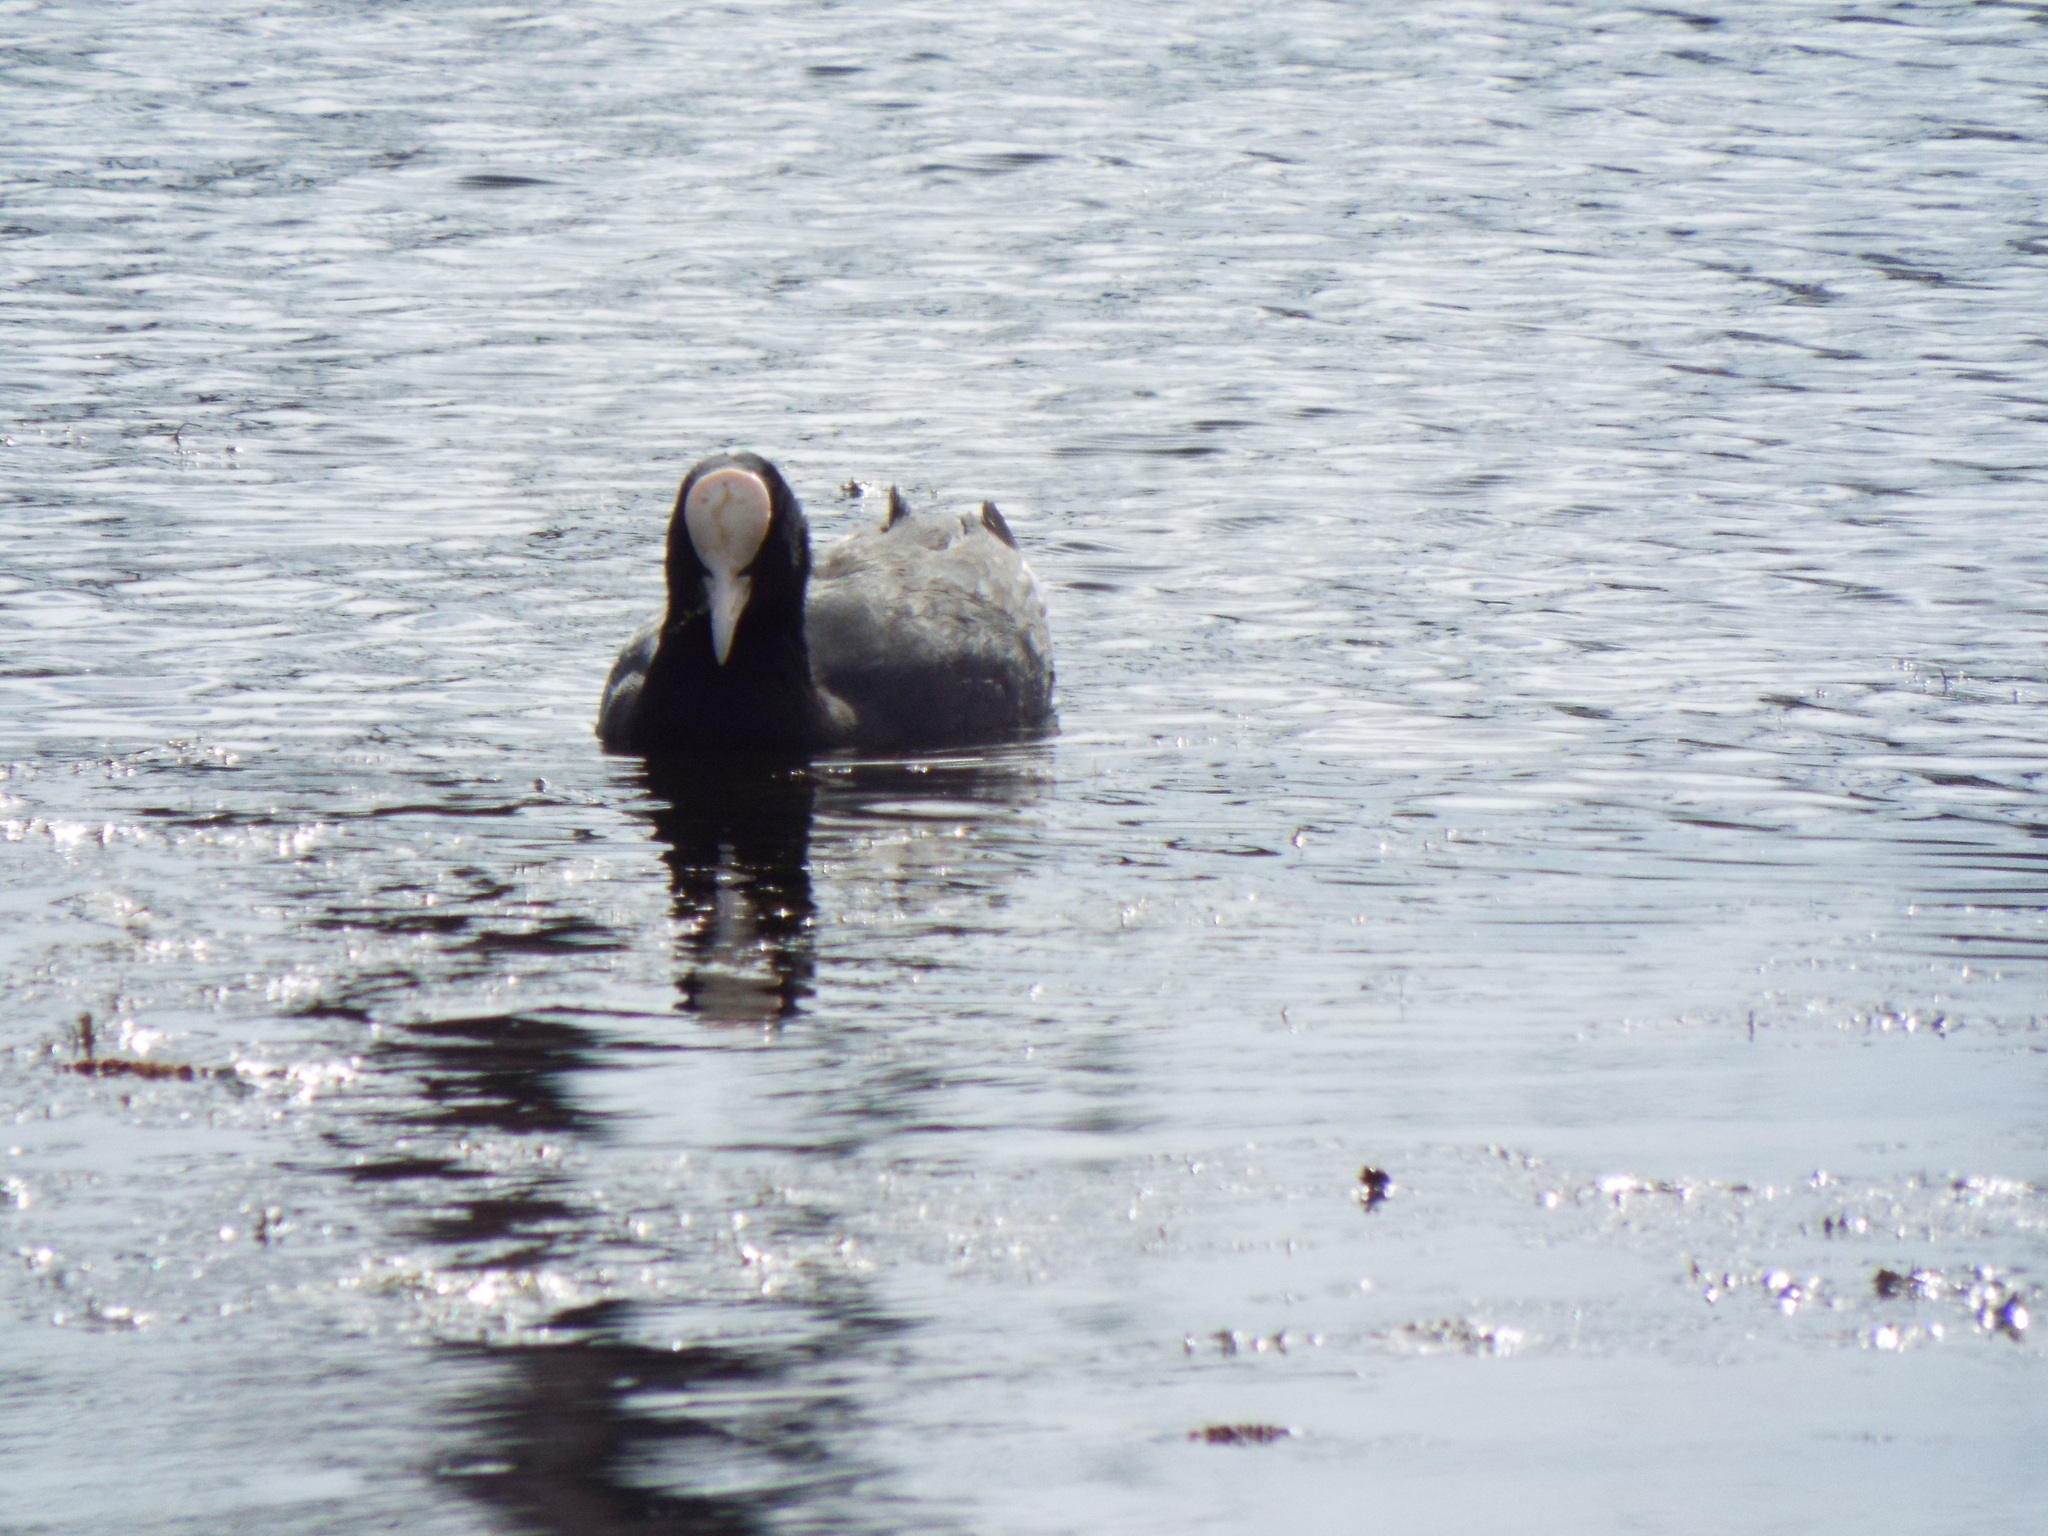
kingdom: Animalia
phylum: Chordata
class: Aves
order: Gruiformes
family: Rallidae
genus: Fulica
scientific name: Fulica atra
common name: Eurasian coot
